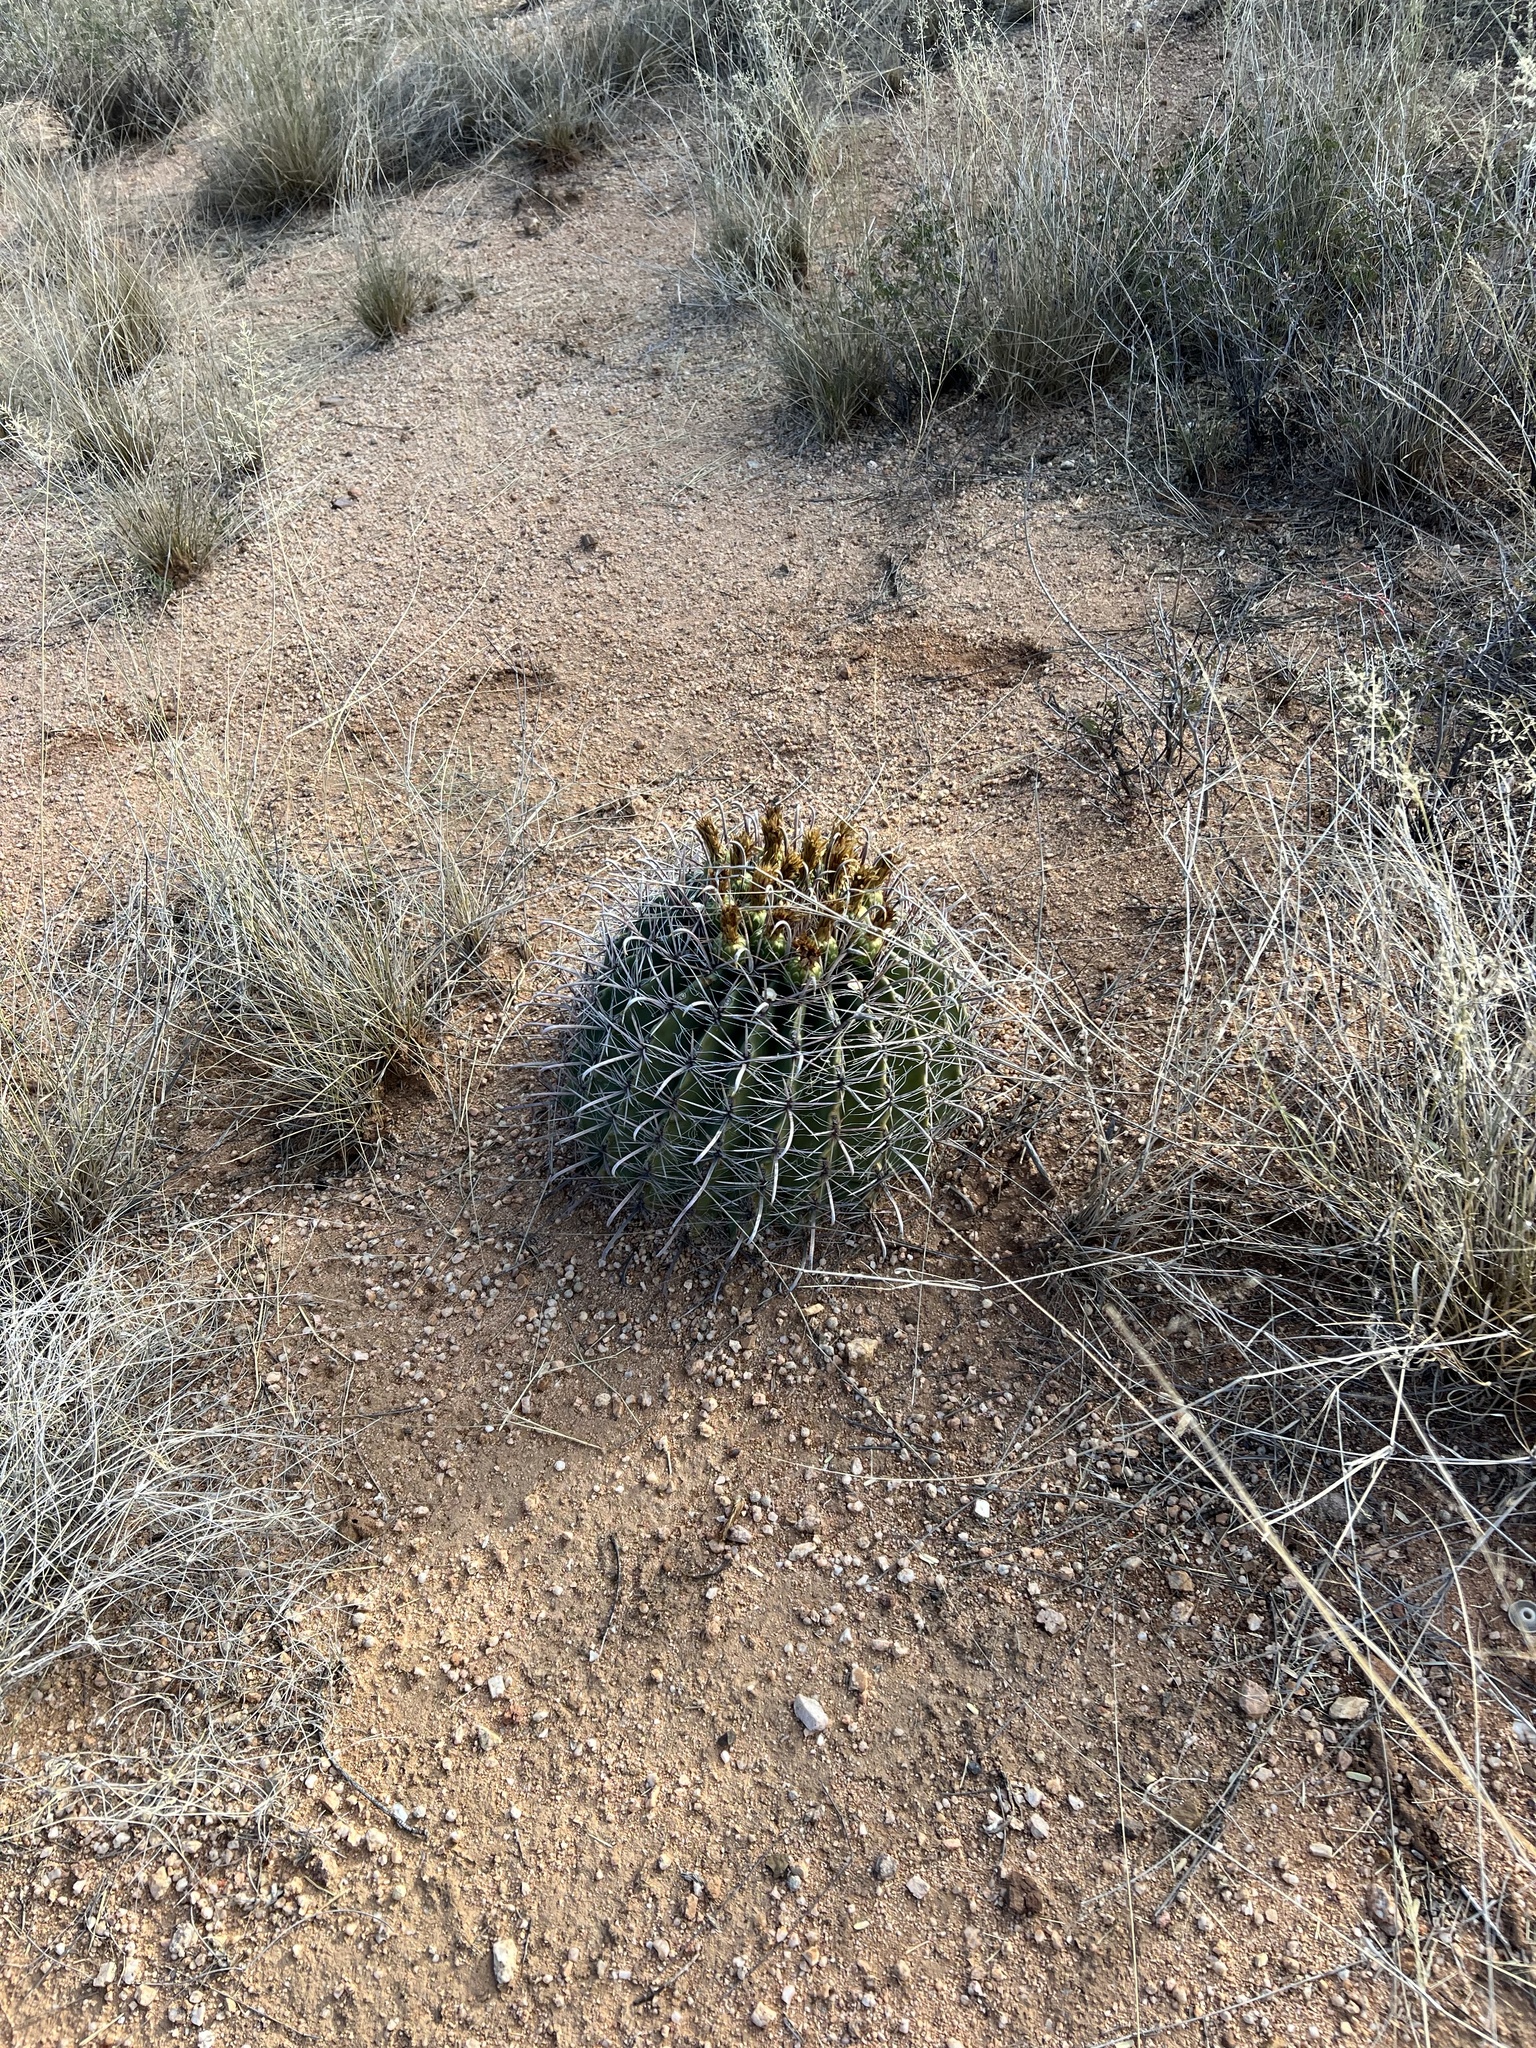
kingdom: Plantae
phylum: Tracheophyta
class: Magnoliopsida
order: Caryophyllales
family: Cactaceae
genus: Ferocactus
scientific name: Ferocactus wislizeni
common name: Candy barrel cactus
